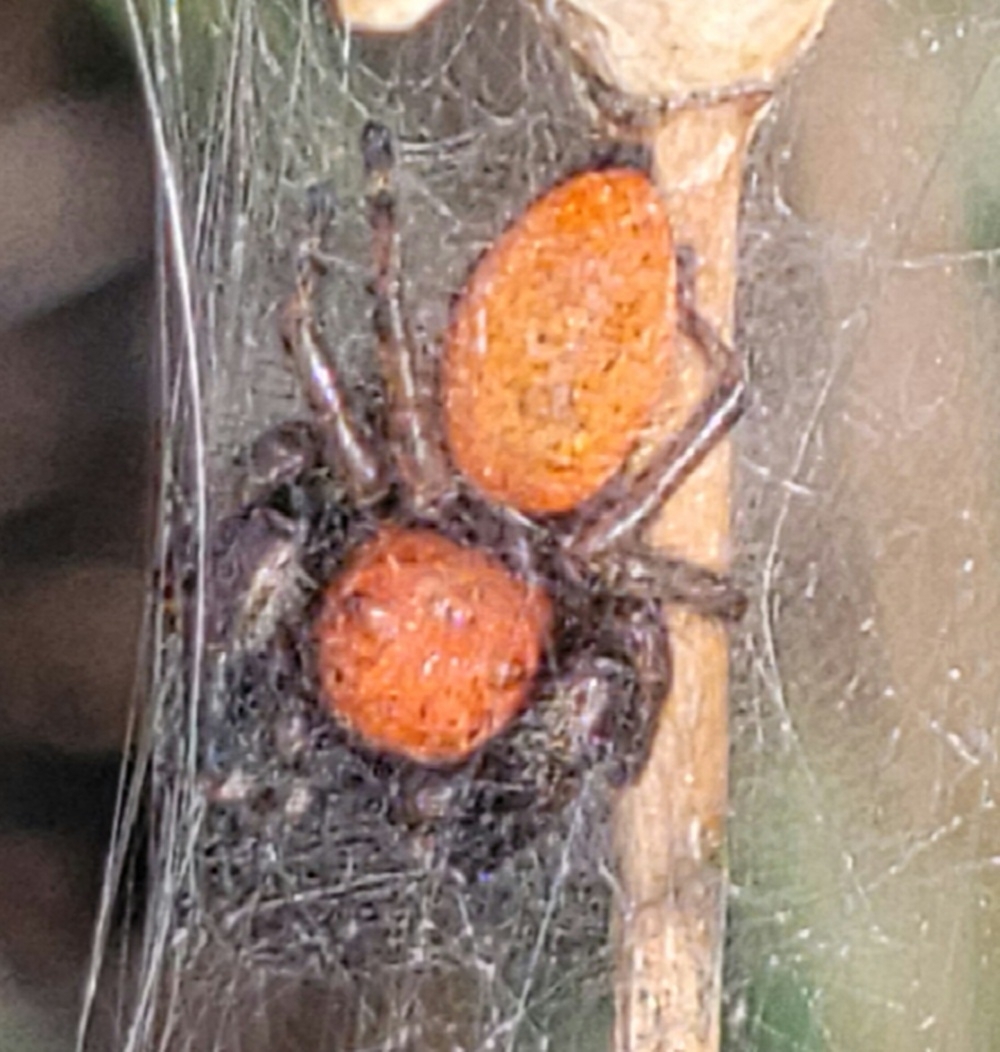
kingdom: Animalia
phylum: Arthropoda
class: Arachnida
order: Araneae
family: Salticidae
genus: Phidippus
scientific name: Phidippus apacheanus
